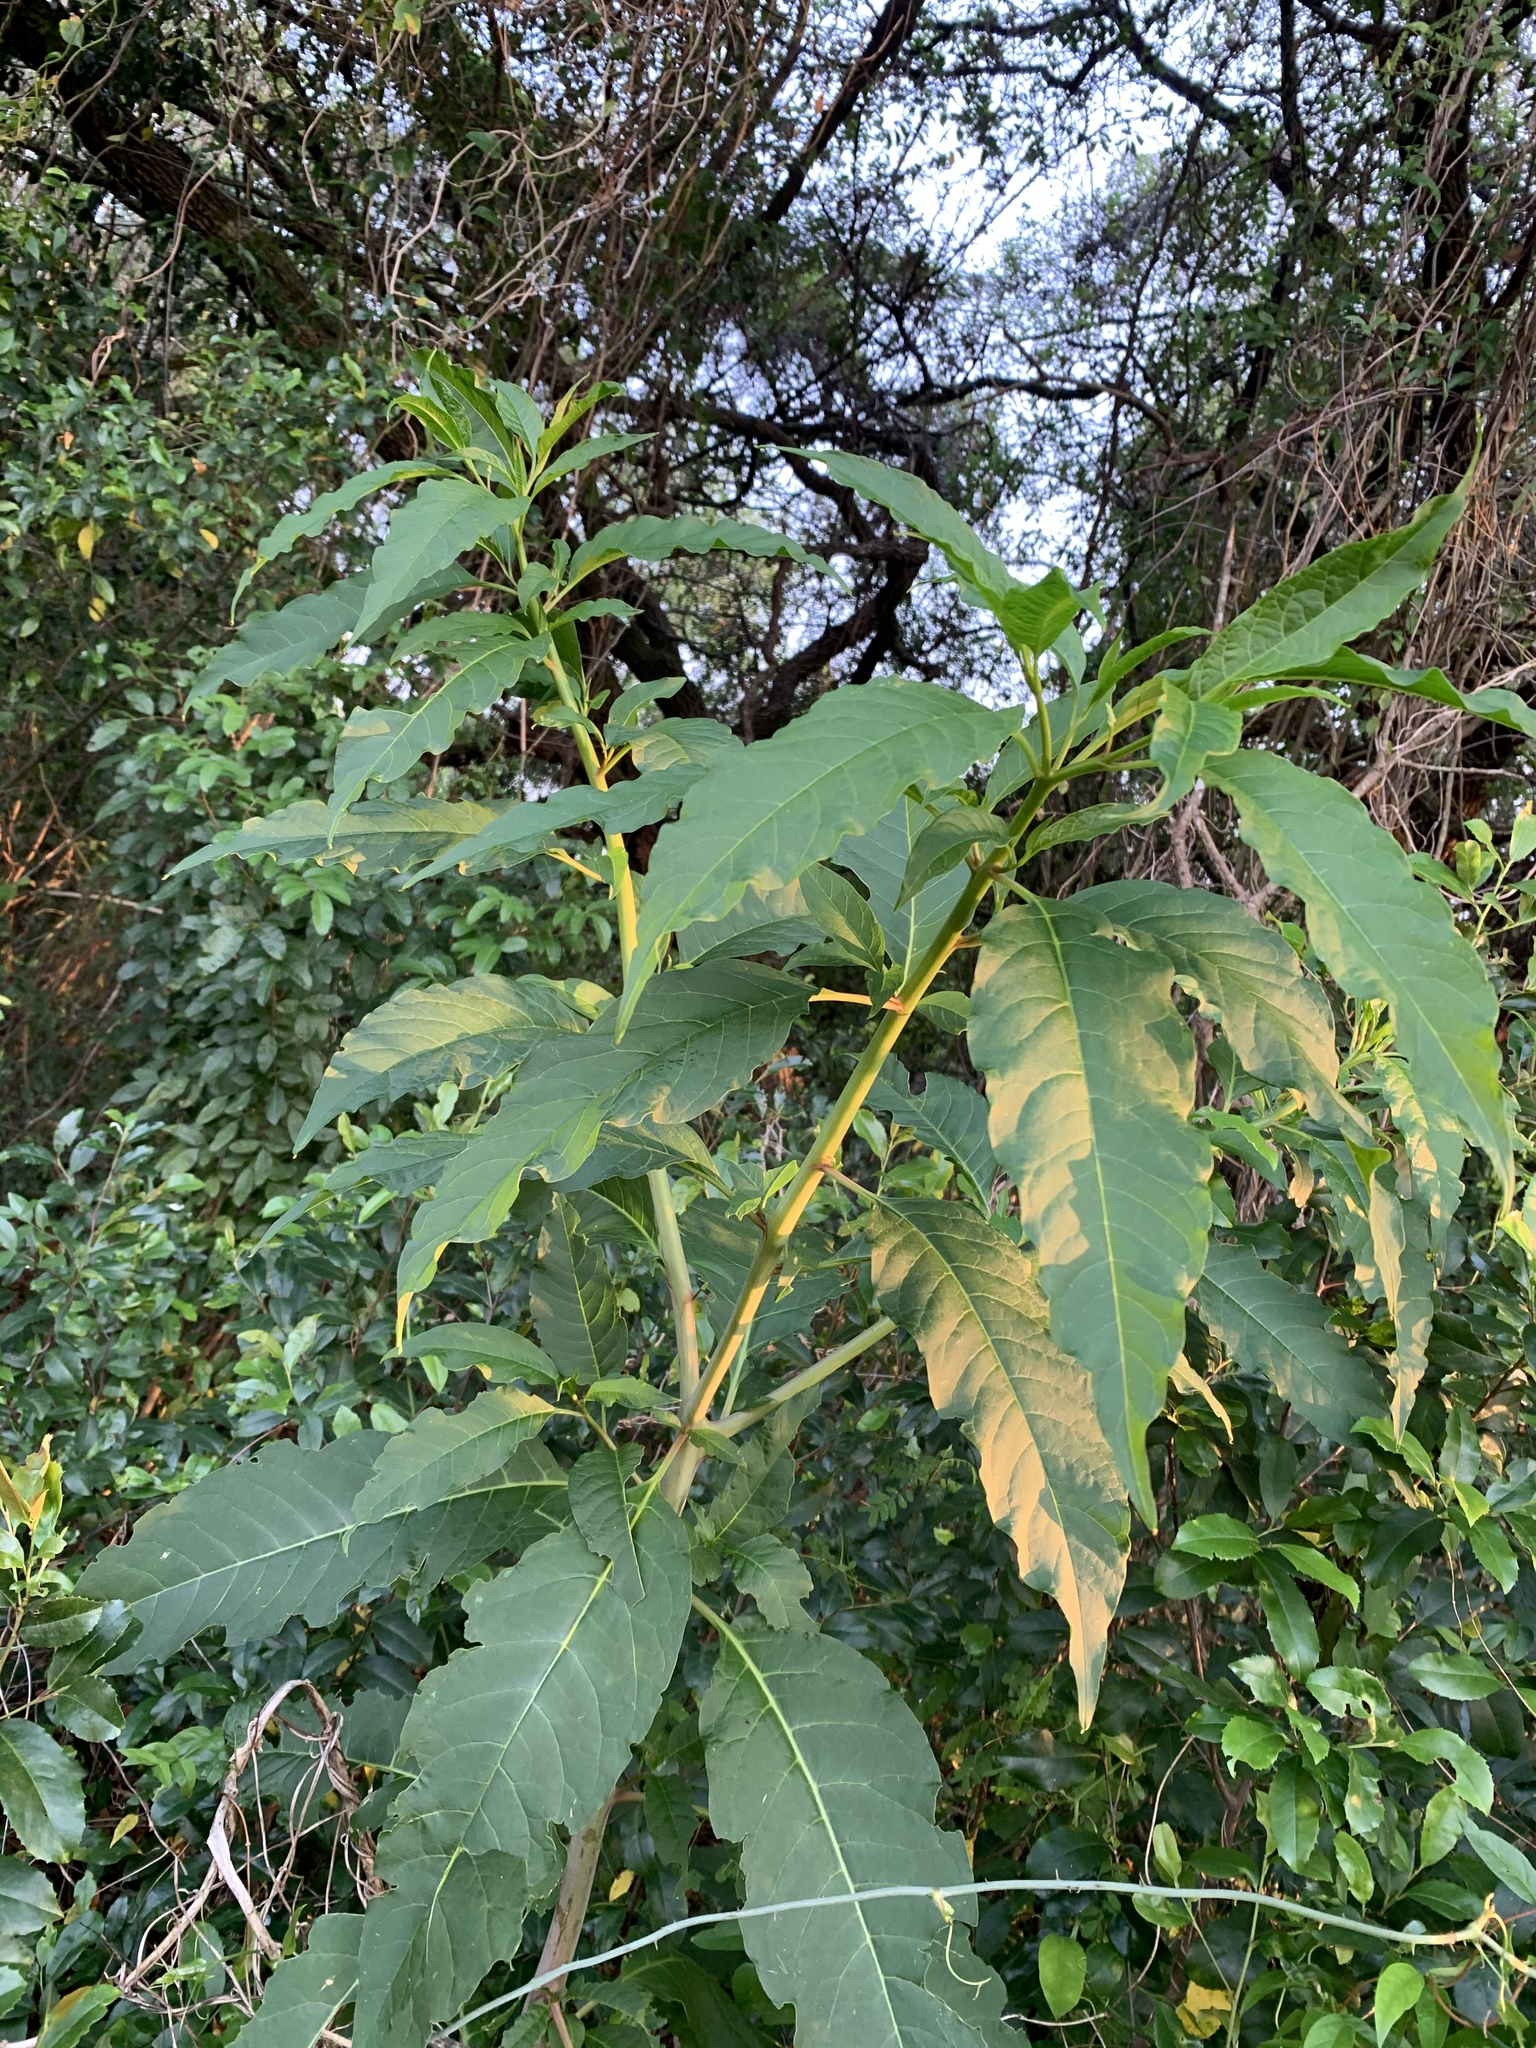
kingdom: Plantae
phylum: Tracheophyta
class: Magnoliopsida
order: Caryophyllales
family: Phytolaccaceae
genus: Phytolacca
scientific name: Phytolacca americana
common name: American pokeweed
